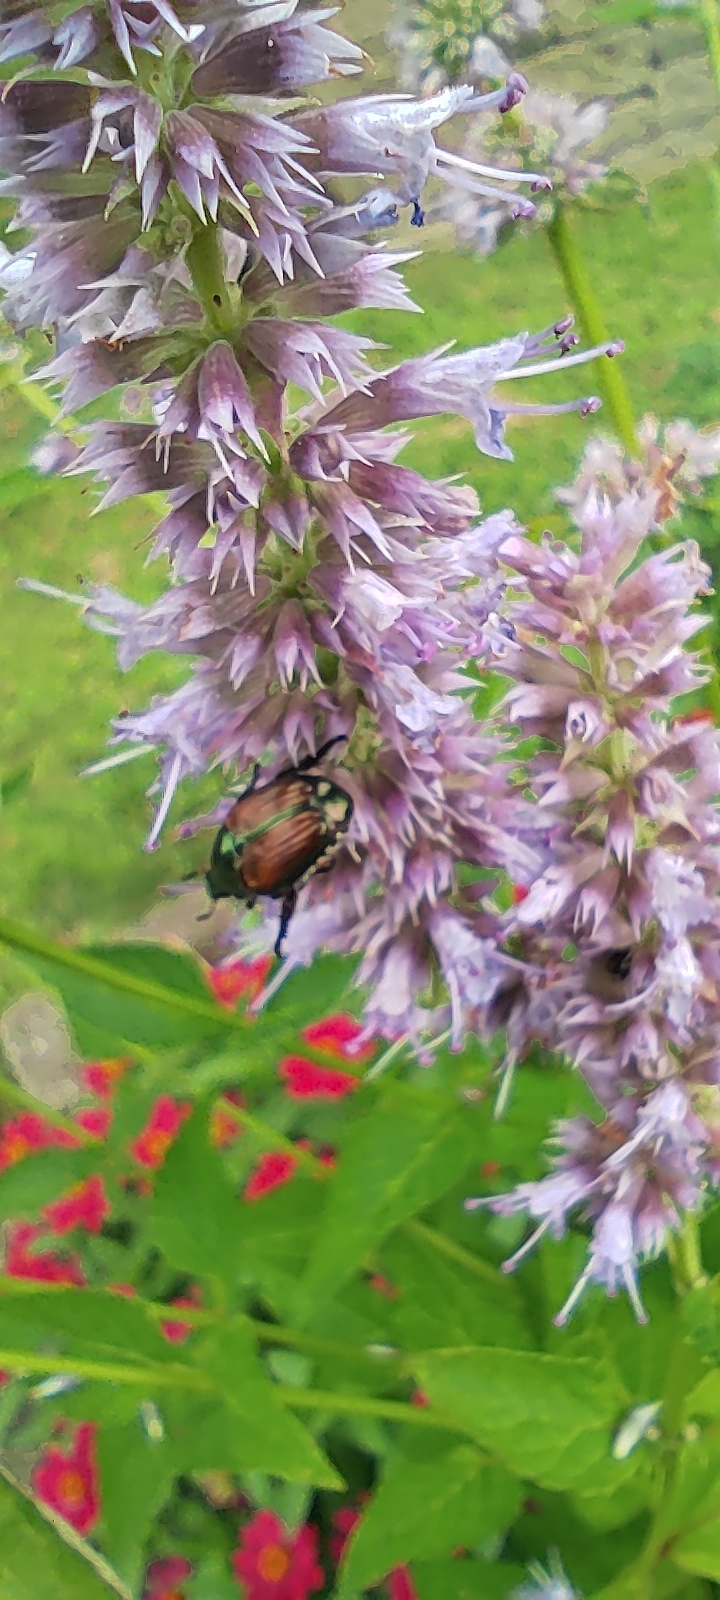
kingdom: Animalia
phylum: Arthropoda
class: Insecta
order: Coleoptera
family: Scarabaeidae
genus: Popillia
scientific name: Popillia japonica
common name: Japanese beetle
